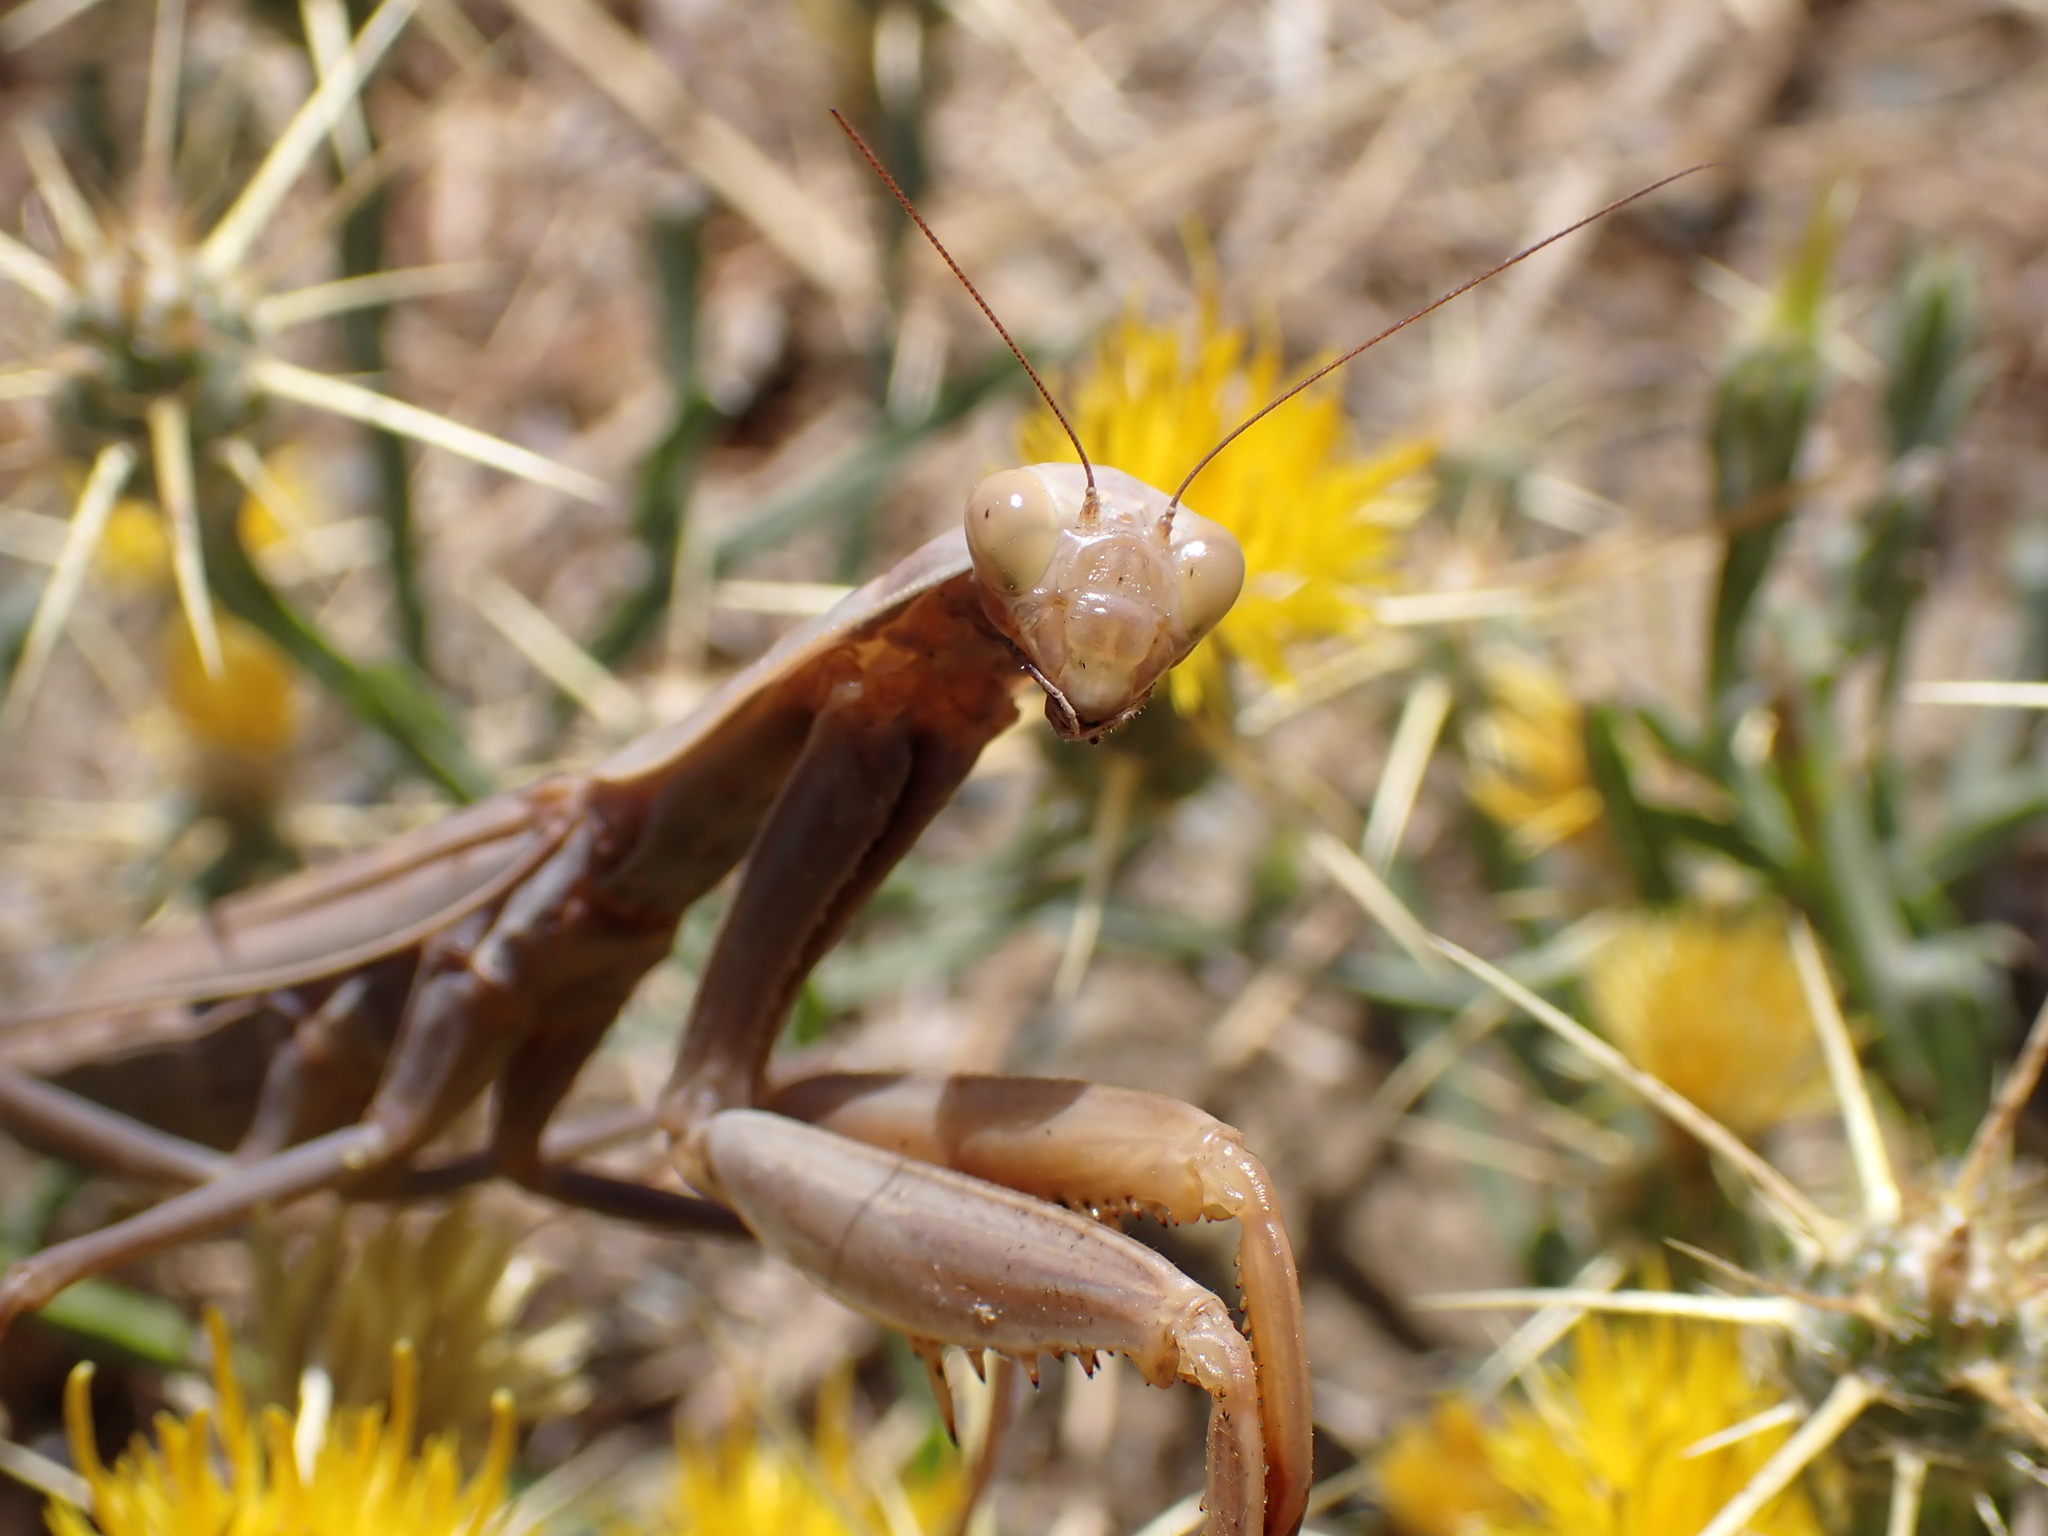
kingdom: Animalia
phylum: Arthropoda
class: Insecta
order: Mantodea
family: Mantidae
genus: Mantis
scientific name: Mantis religiosa
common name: Praying mantis
